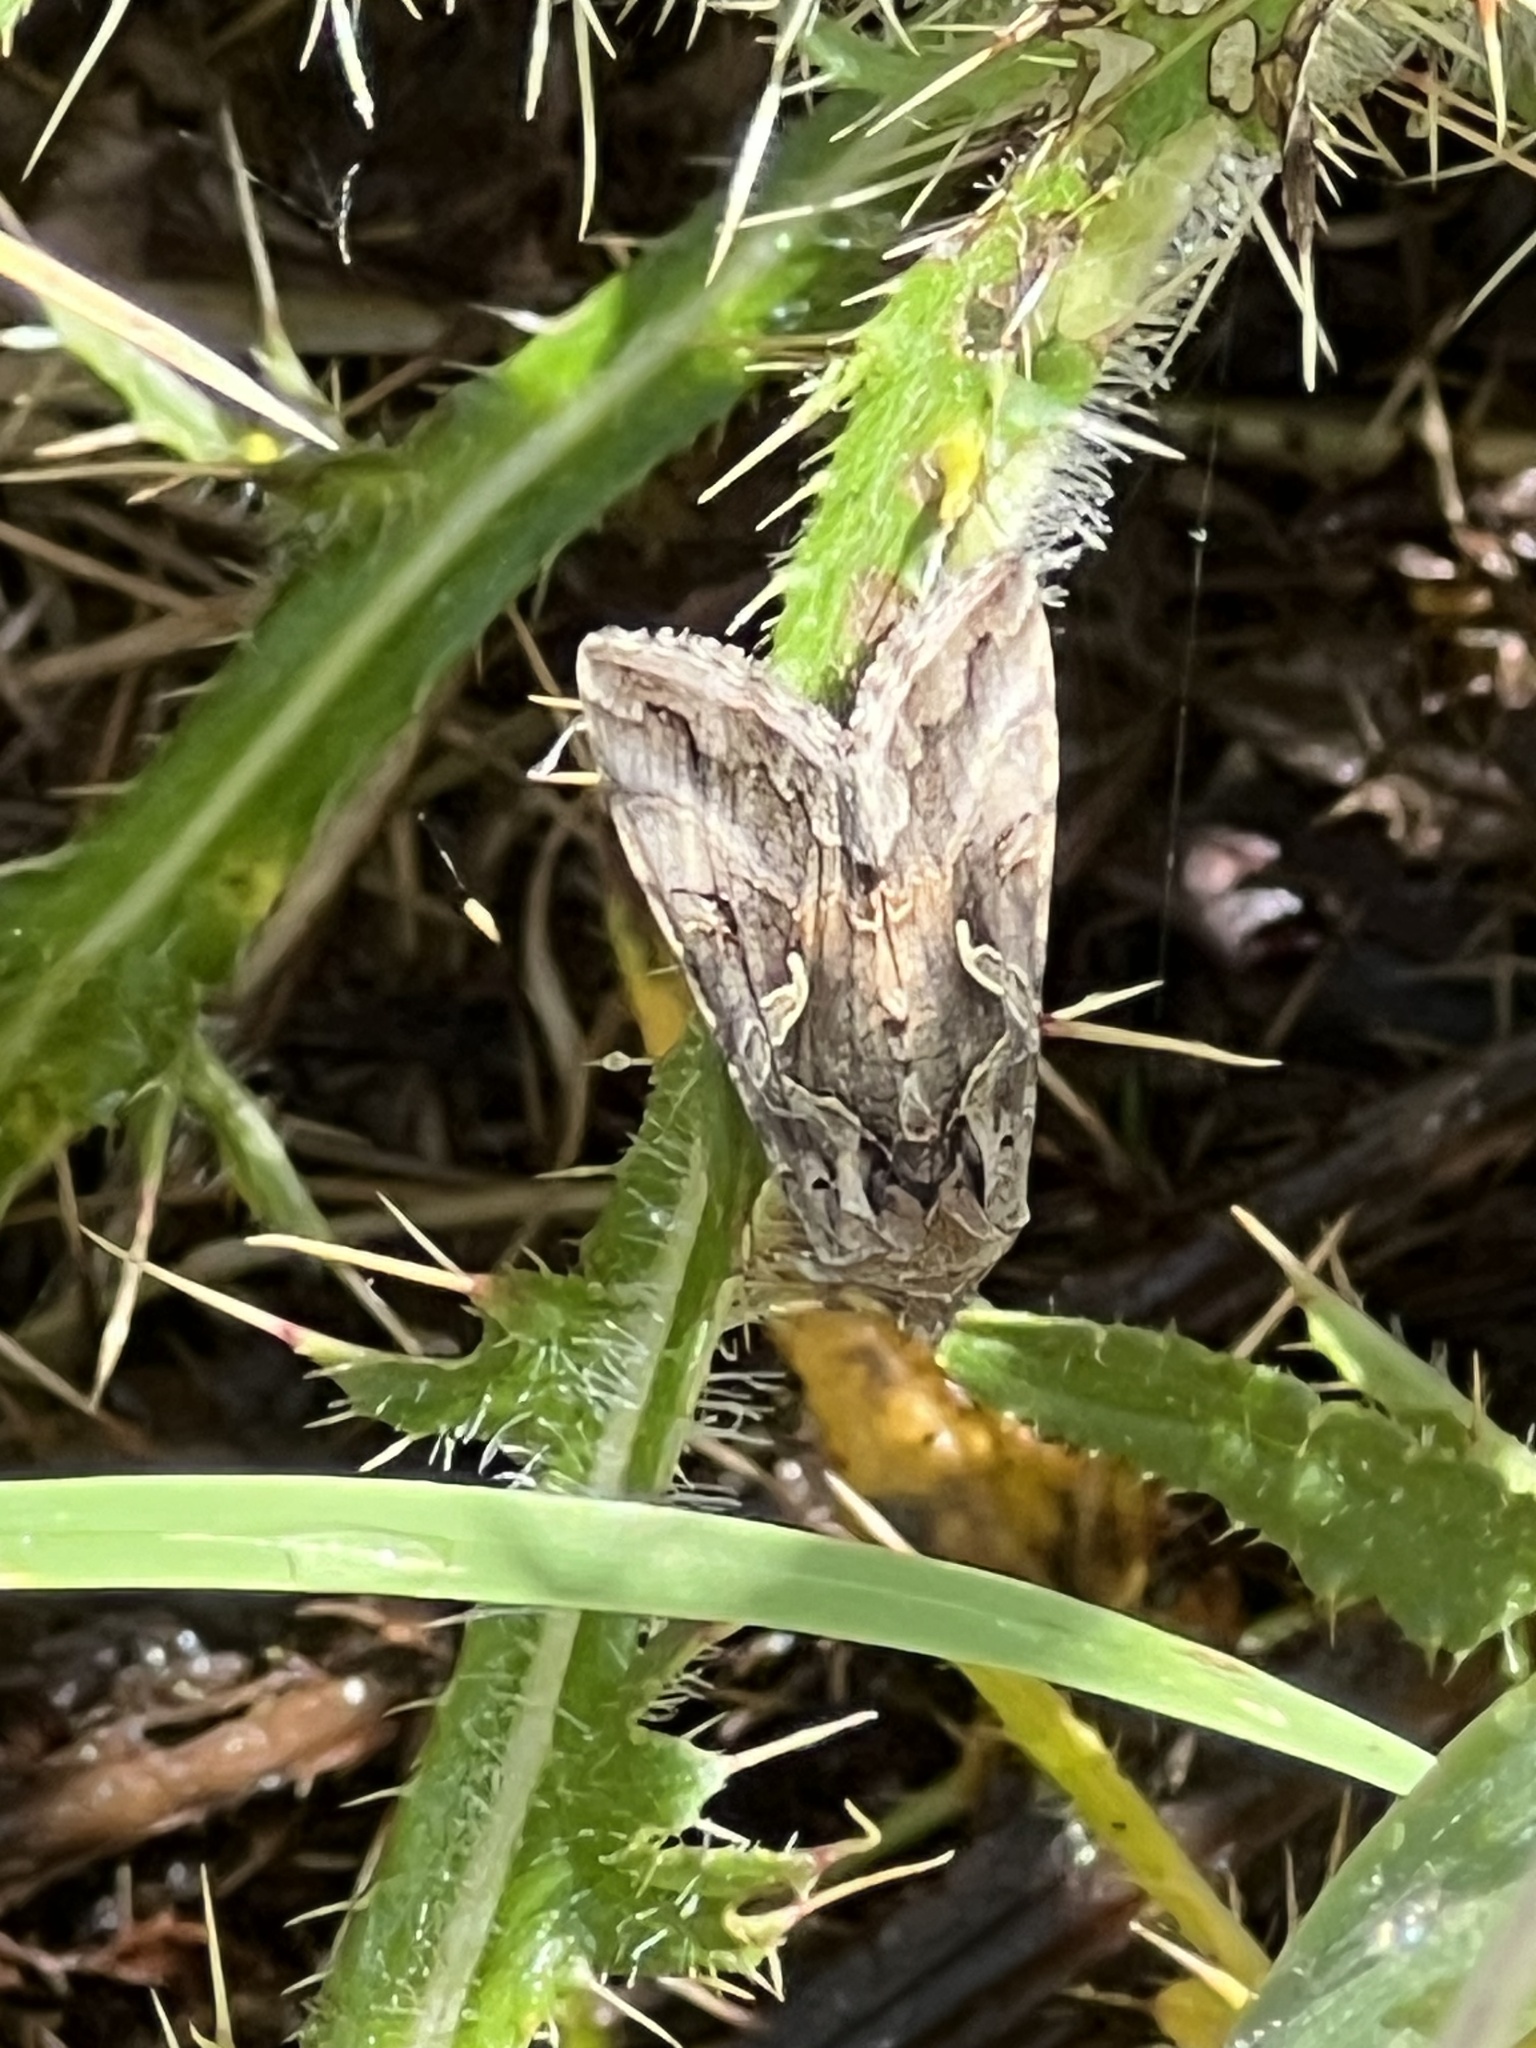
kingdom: Animalia
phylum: Arthropoda
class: Insecta
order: Lepidoptera
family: Noctuidae
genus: Autographa
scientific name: Autographa gamma
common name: Silver y
